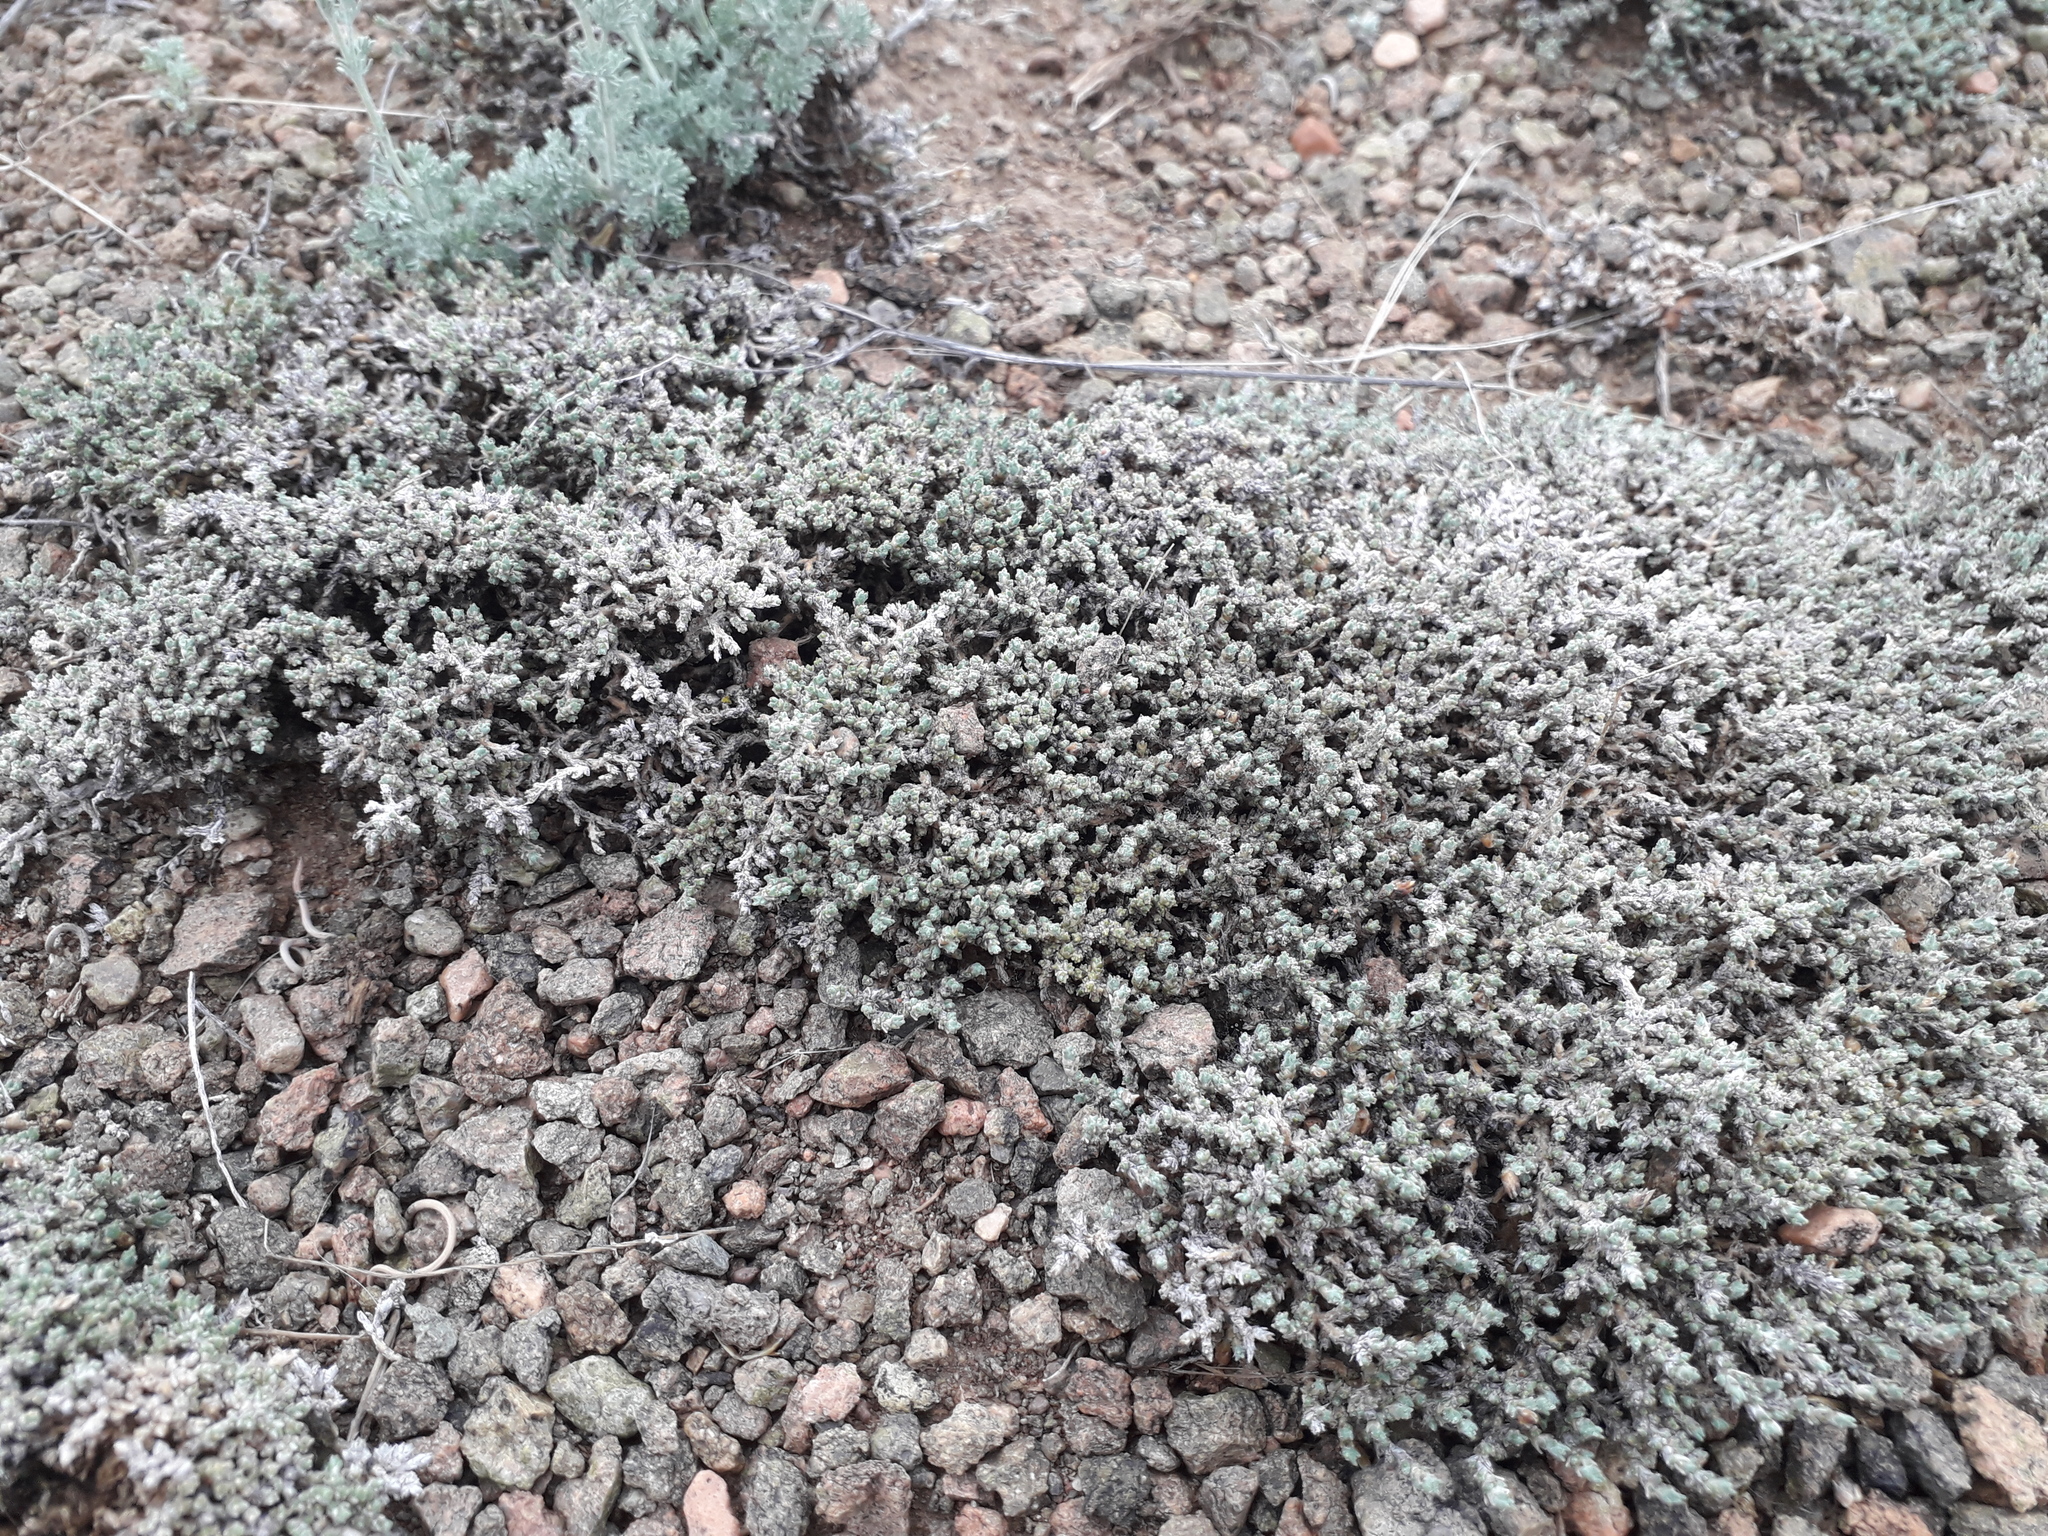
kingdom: Plantae
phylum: Tracheophyta
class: Magnoliopsida
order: Caryophyllales
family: Amaranthaceae
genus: Camphorosma
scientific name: Camphorosma monspeliaca
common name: Camphorfume
